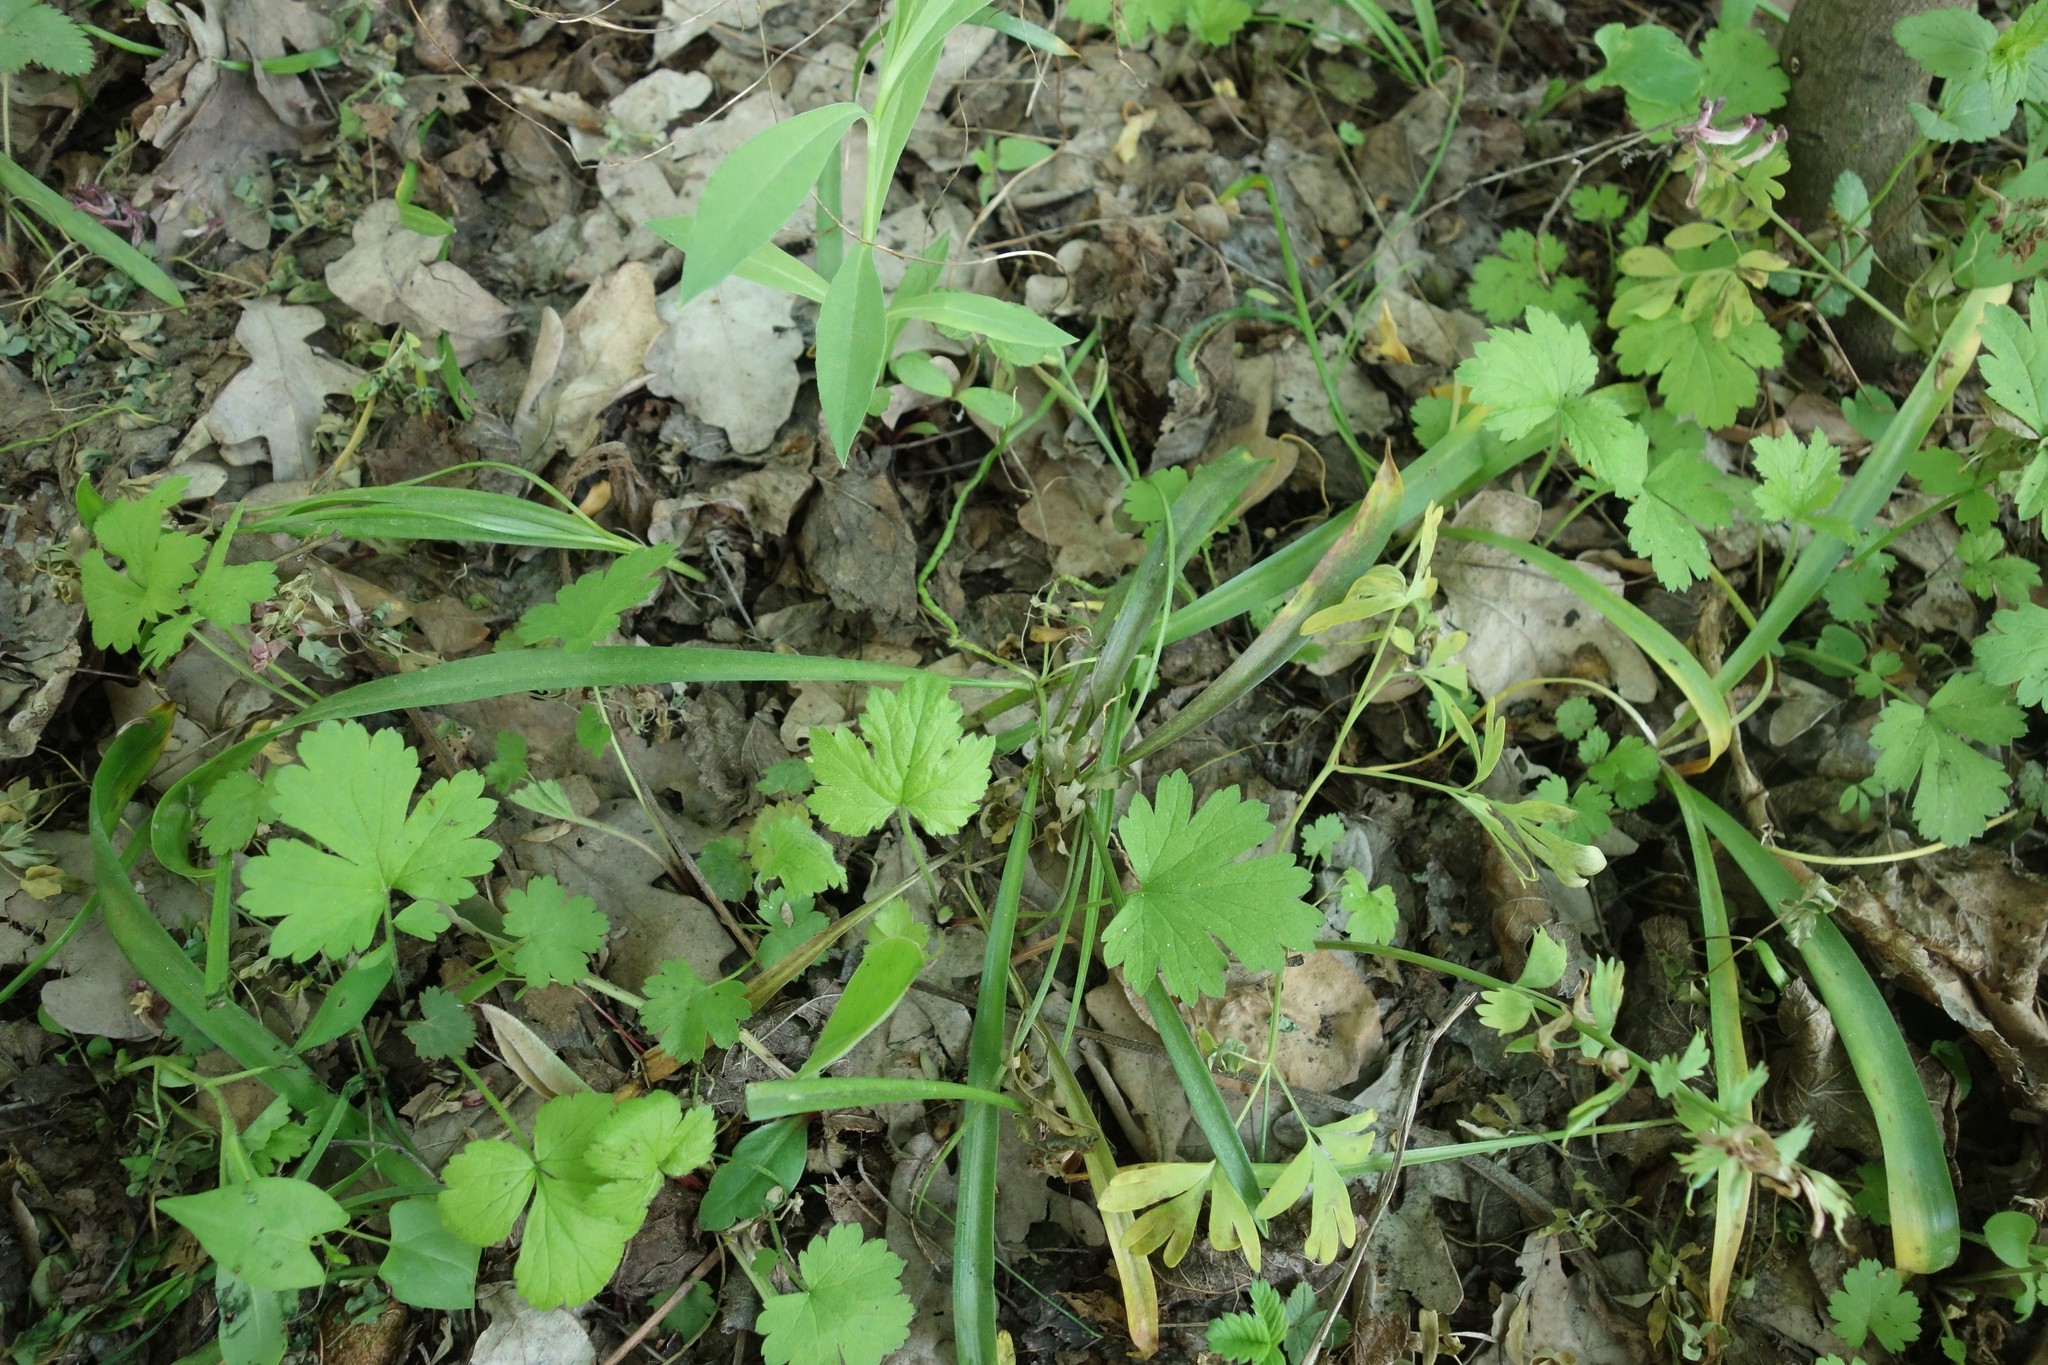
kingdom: Plantae
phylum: Tracheophyta
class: Liliopsida
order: Asparagales
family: Asparagaceae
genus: Scilla
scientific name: Scilla siberica
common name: Siberian squill
